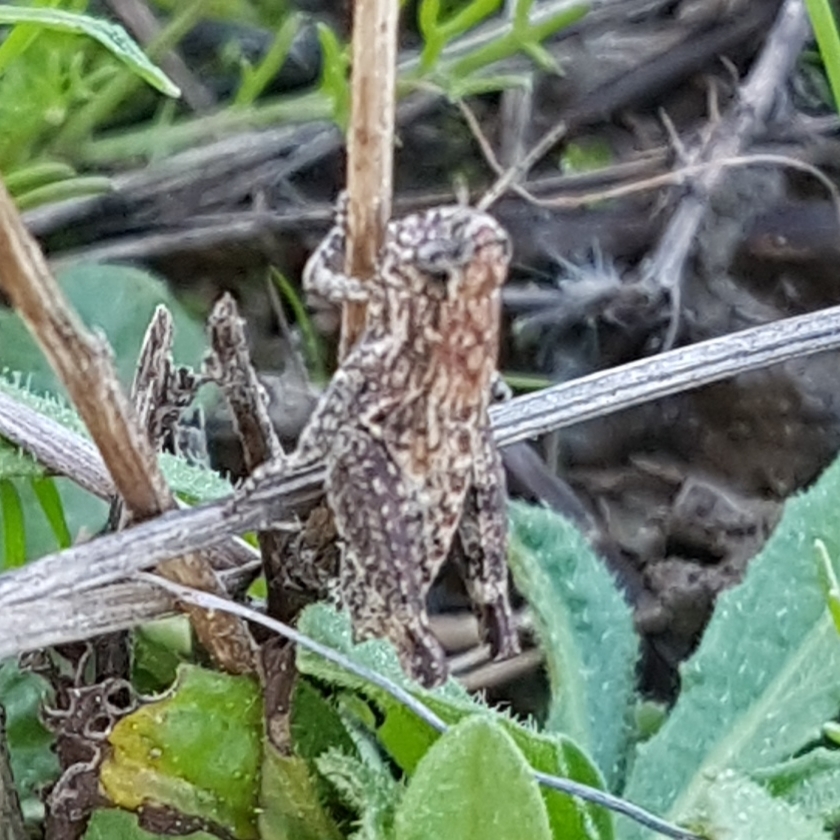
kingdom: Animalia
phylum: Arthropoda
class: Insecta
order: Orthoptera
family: Acrididae
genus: Pezotettix
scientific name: Pezotettix giornae
